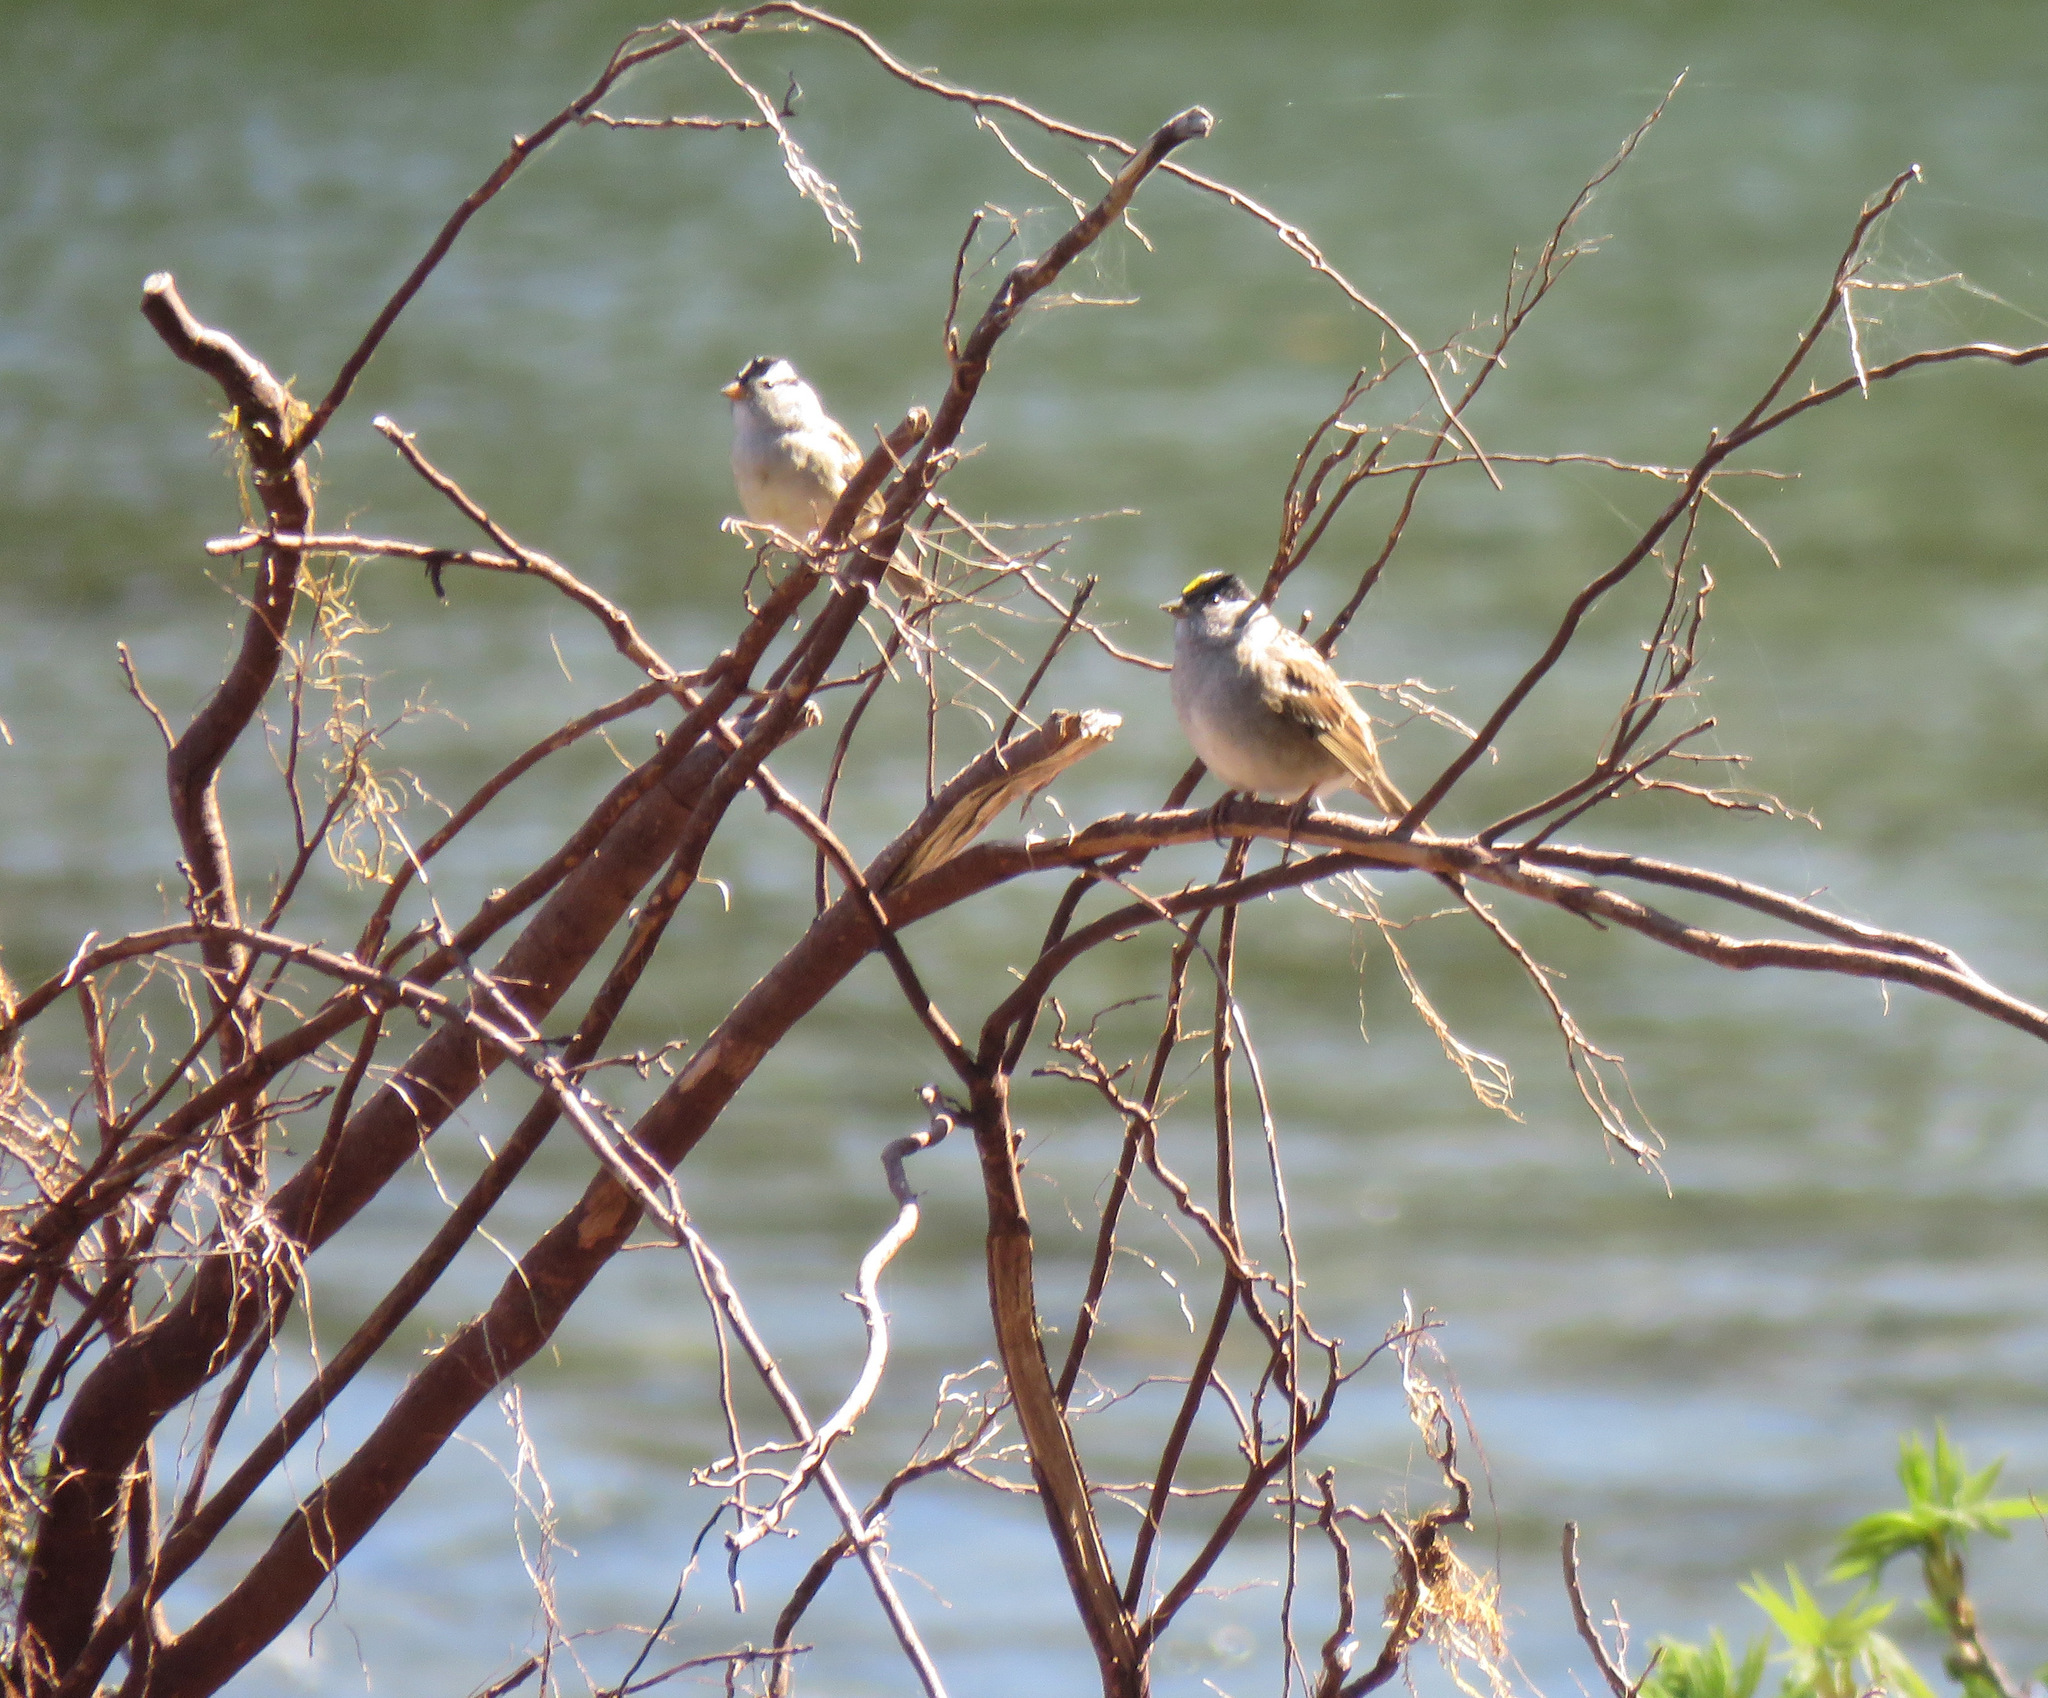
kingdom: Animalia
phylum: Chordata
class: Aves
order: Passeriformes
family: Passerellidae
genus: Zonotrichia
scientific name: Zonotrichia atricapilla
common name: Golden-crowned sparrow
